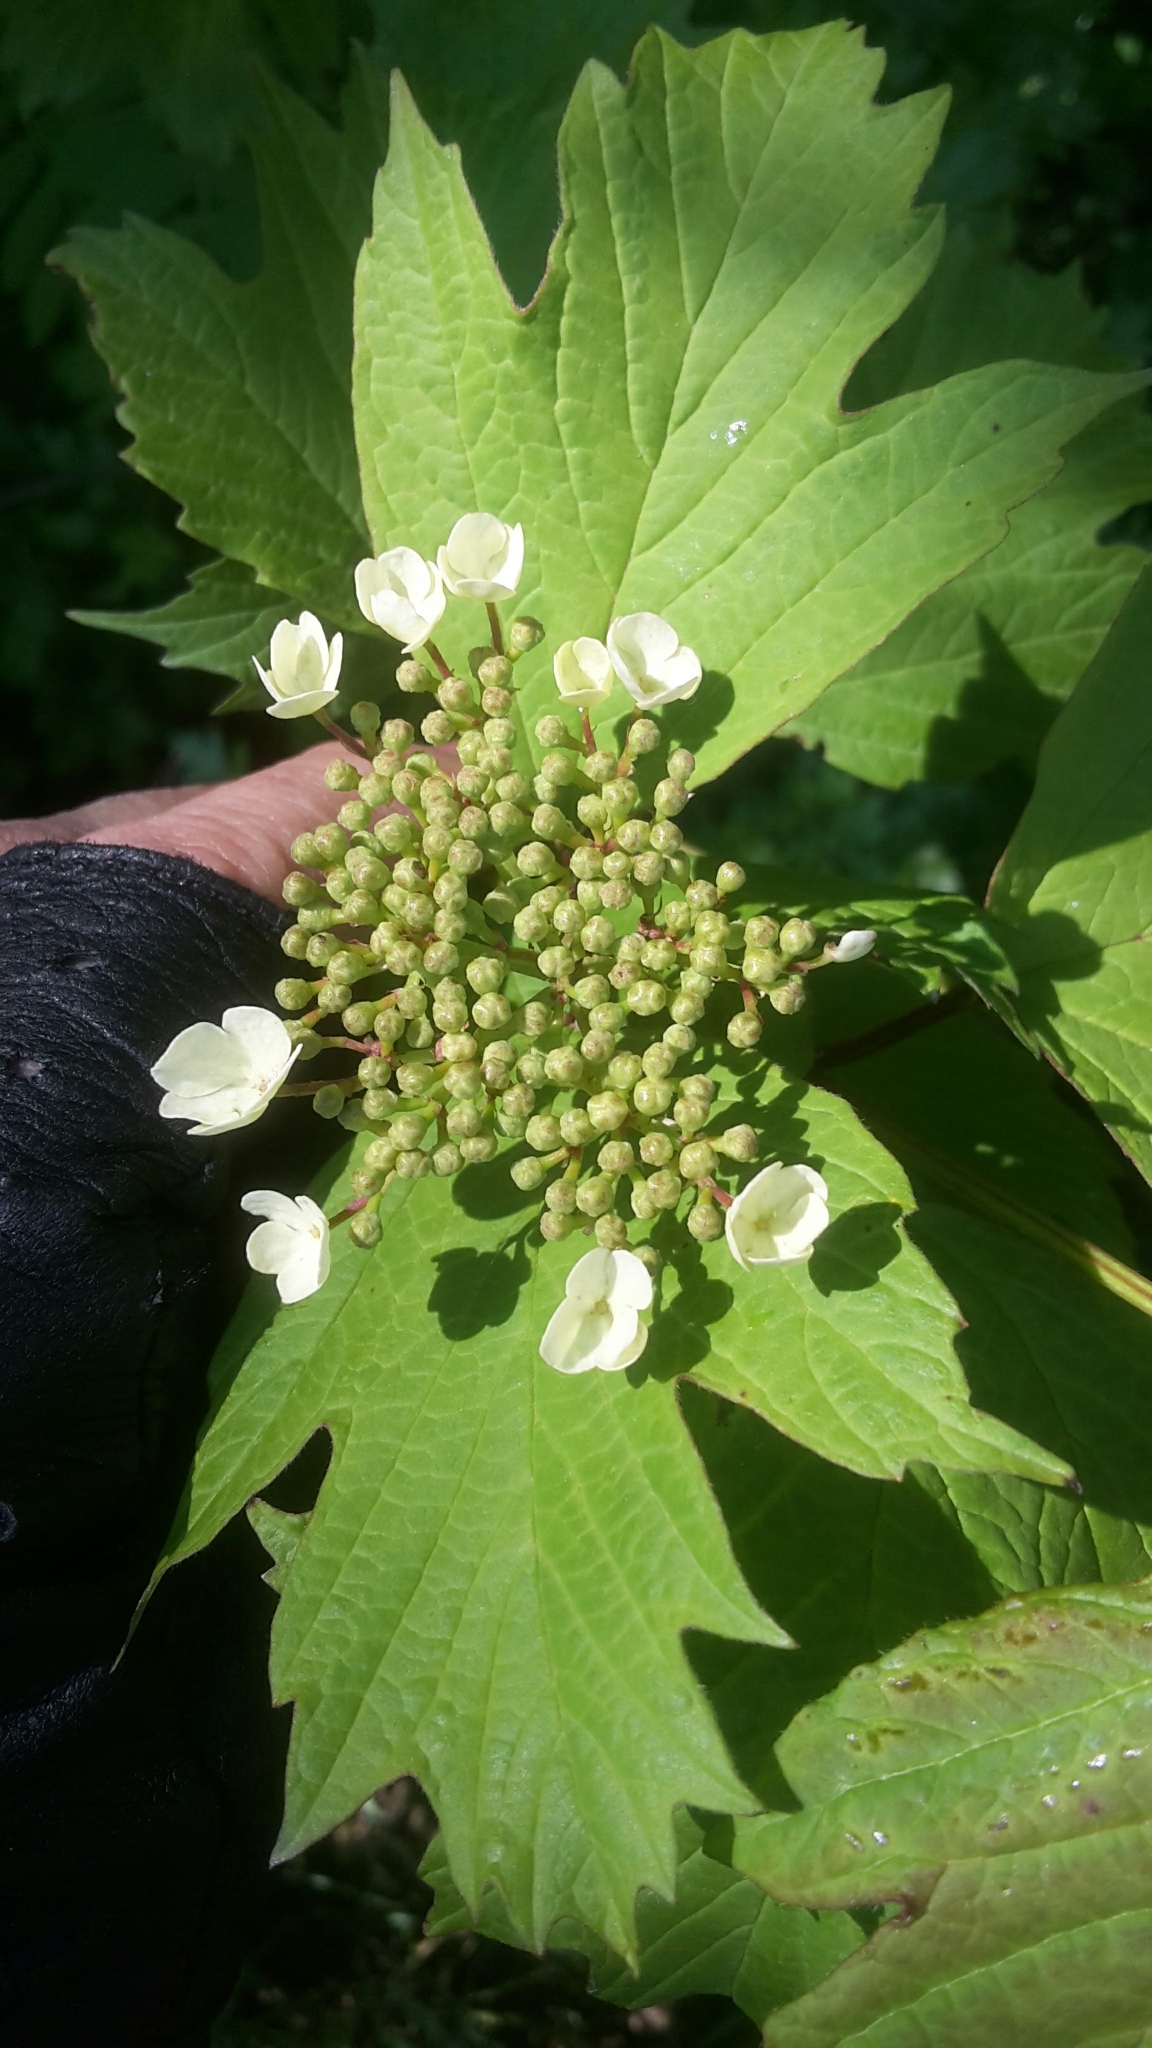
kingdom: Plantae
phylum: Tracheophyta
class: Magnoliopsida
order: Dipsacales
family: Viburnaceae
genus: Viburnum
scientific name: Viburnum opulus
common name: Guelder-rose
